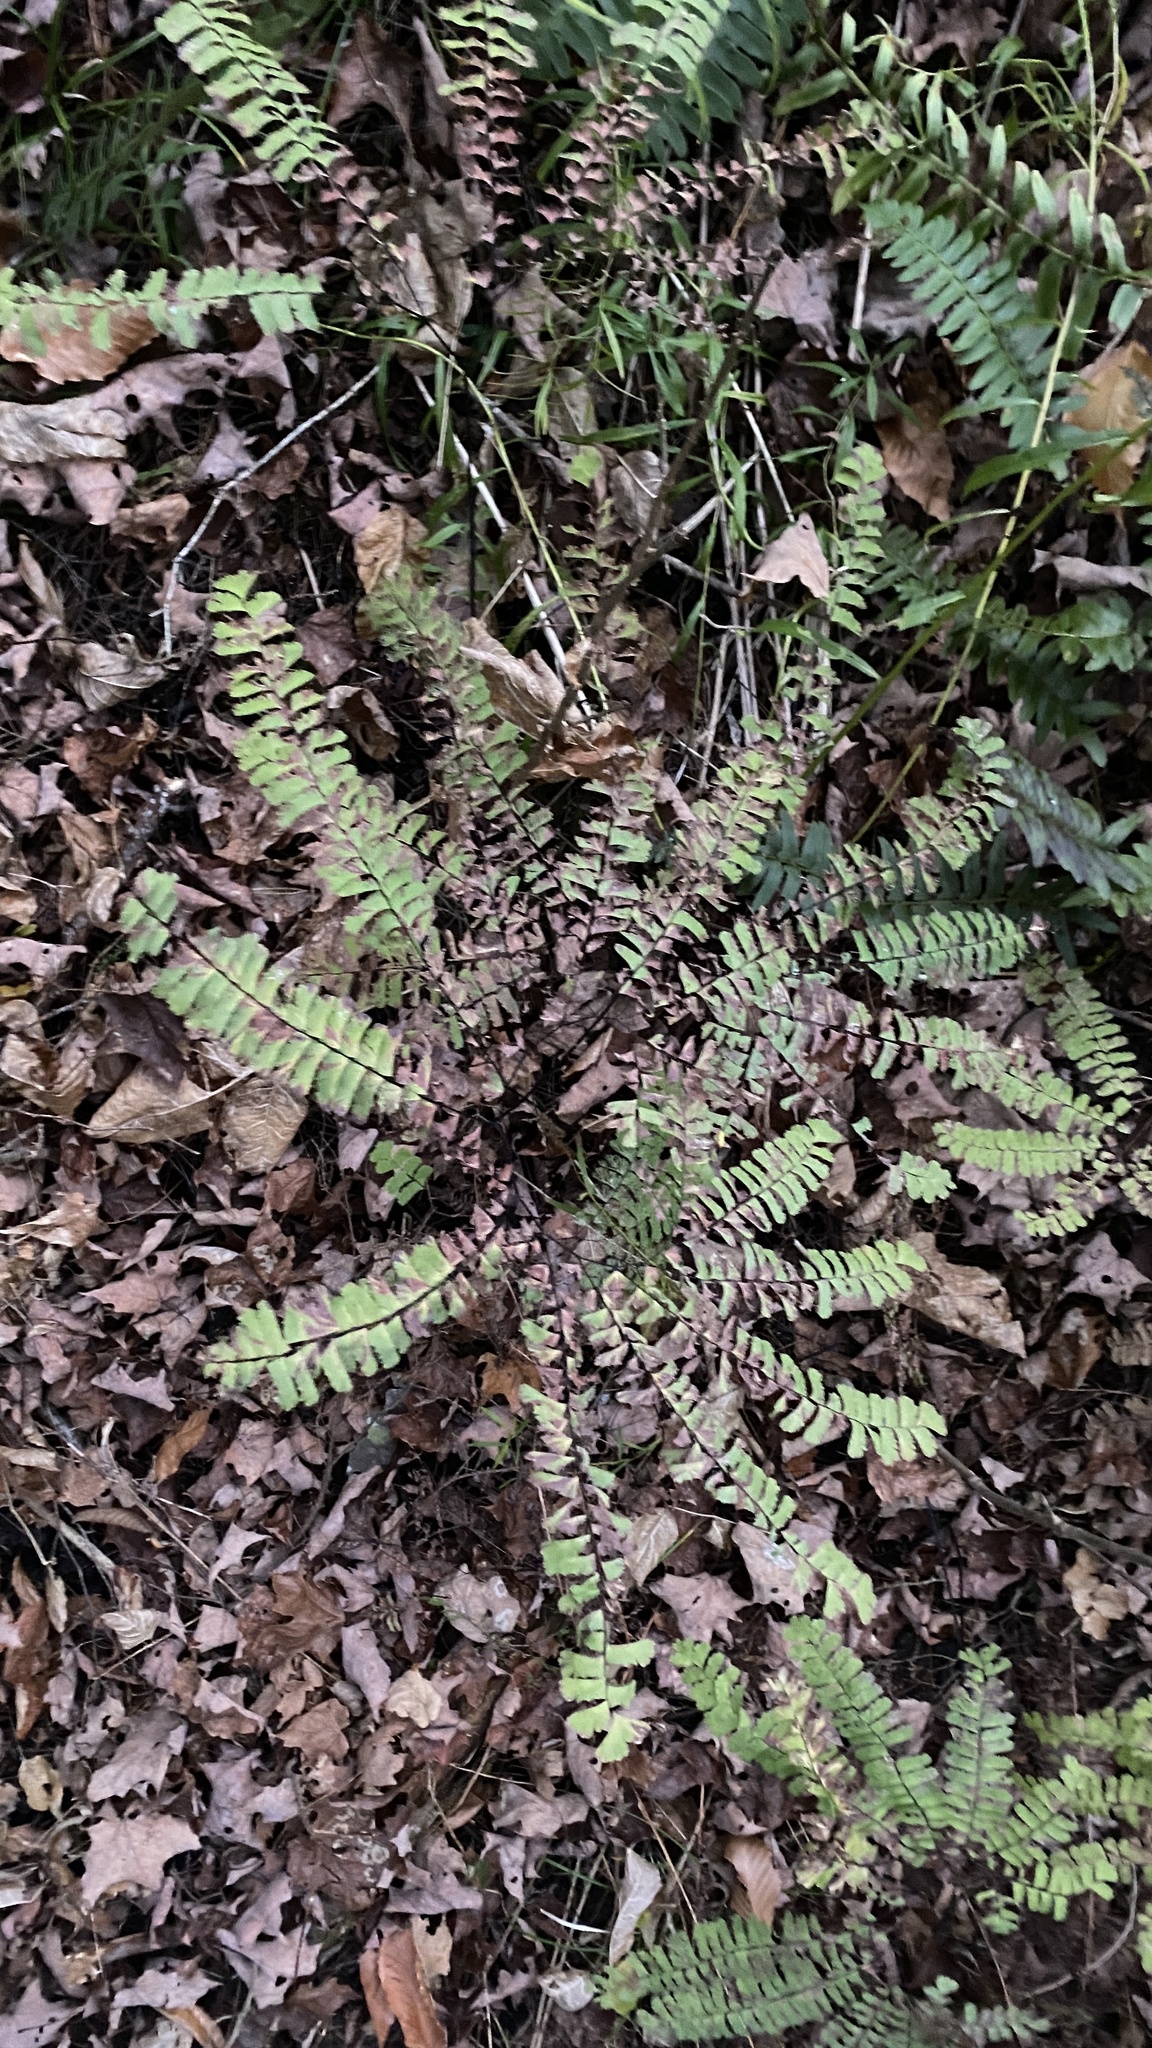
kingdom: Plantae
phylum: Tracheophyta
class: Polypodiopsida
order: Polypodiales
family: Pteridaceae
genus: Adiantum
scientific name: Adiantum pedatum
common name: Five-finger fern
